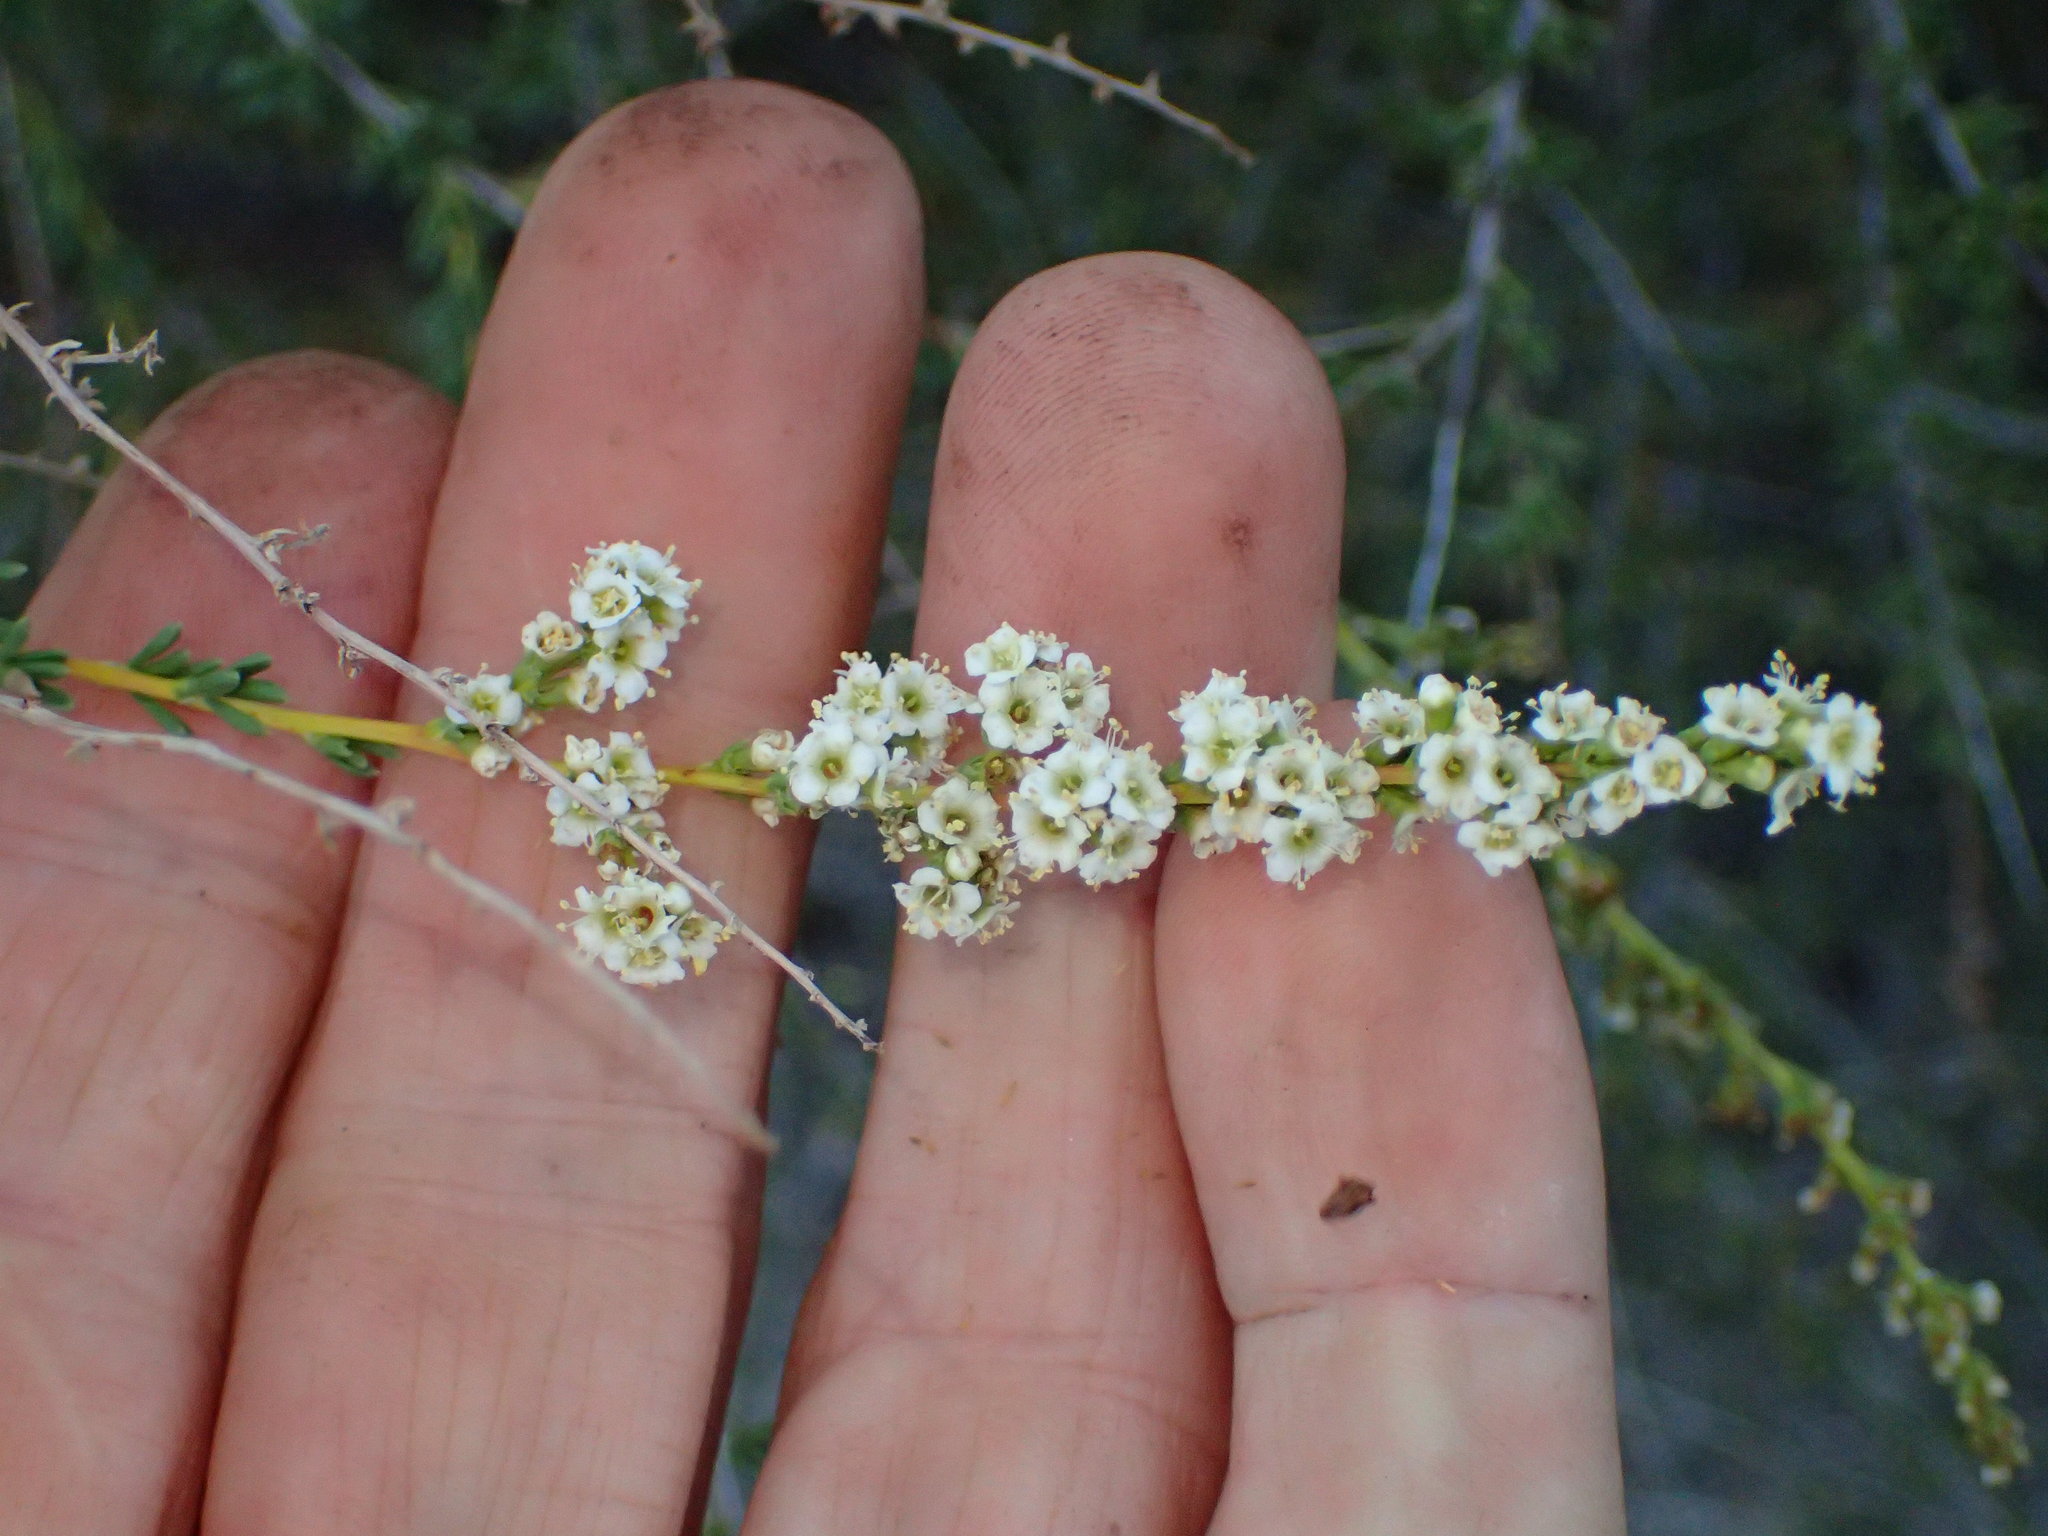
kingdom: Plantae
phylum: Tracheophyta
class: Magnoliopsida
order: Rosales
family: Rosaceae
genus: Adenostoma
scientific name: Adenostoma fasciculatum
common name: Chamise
